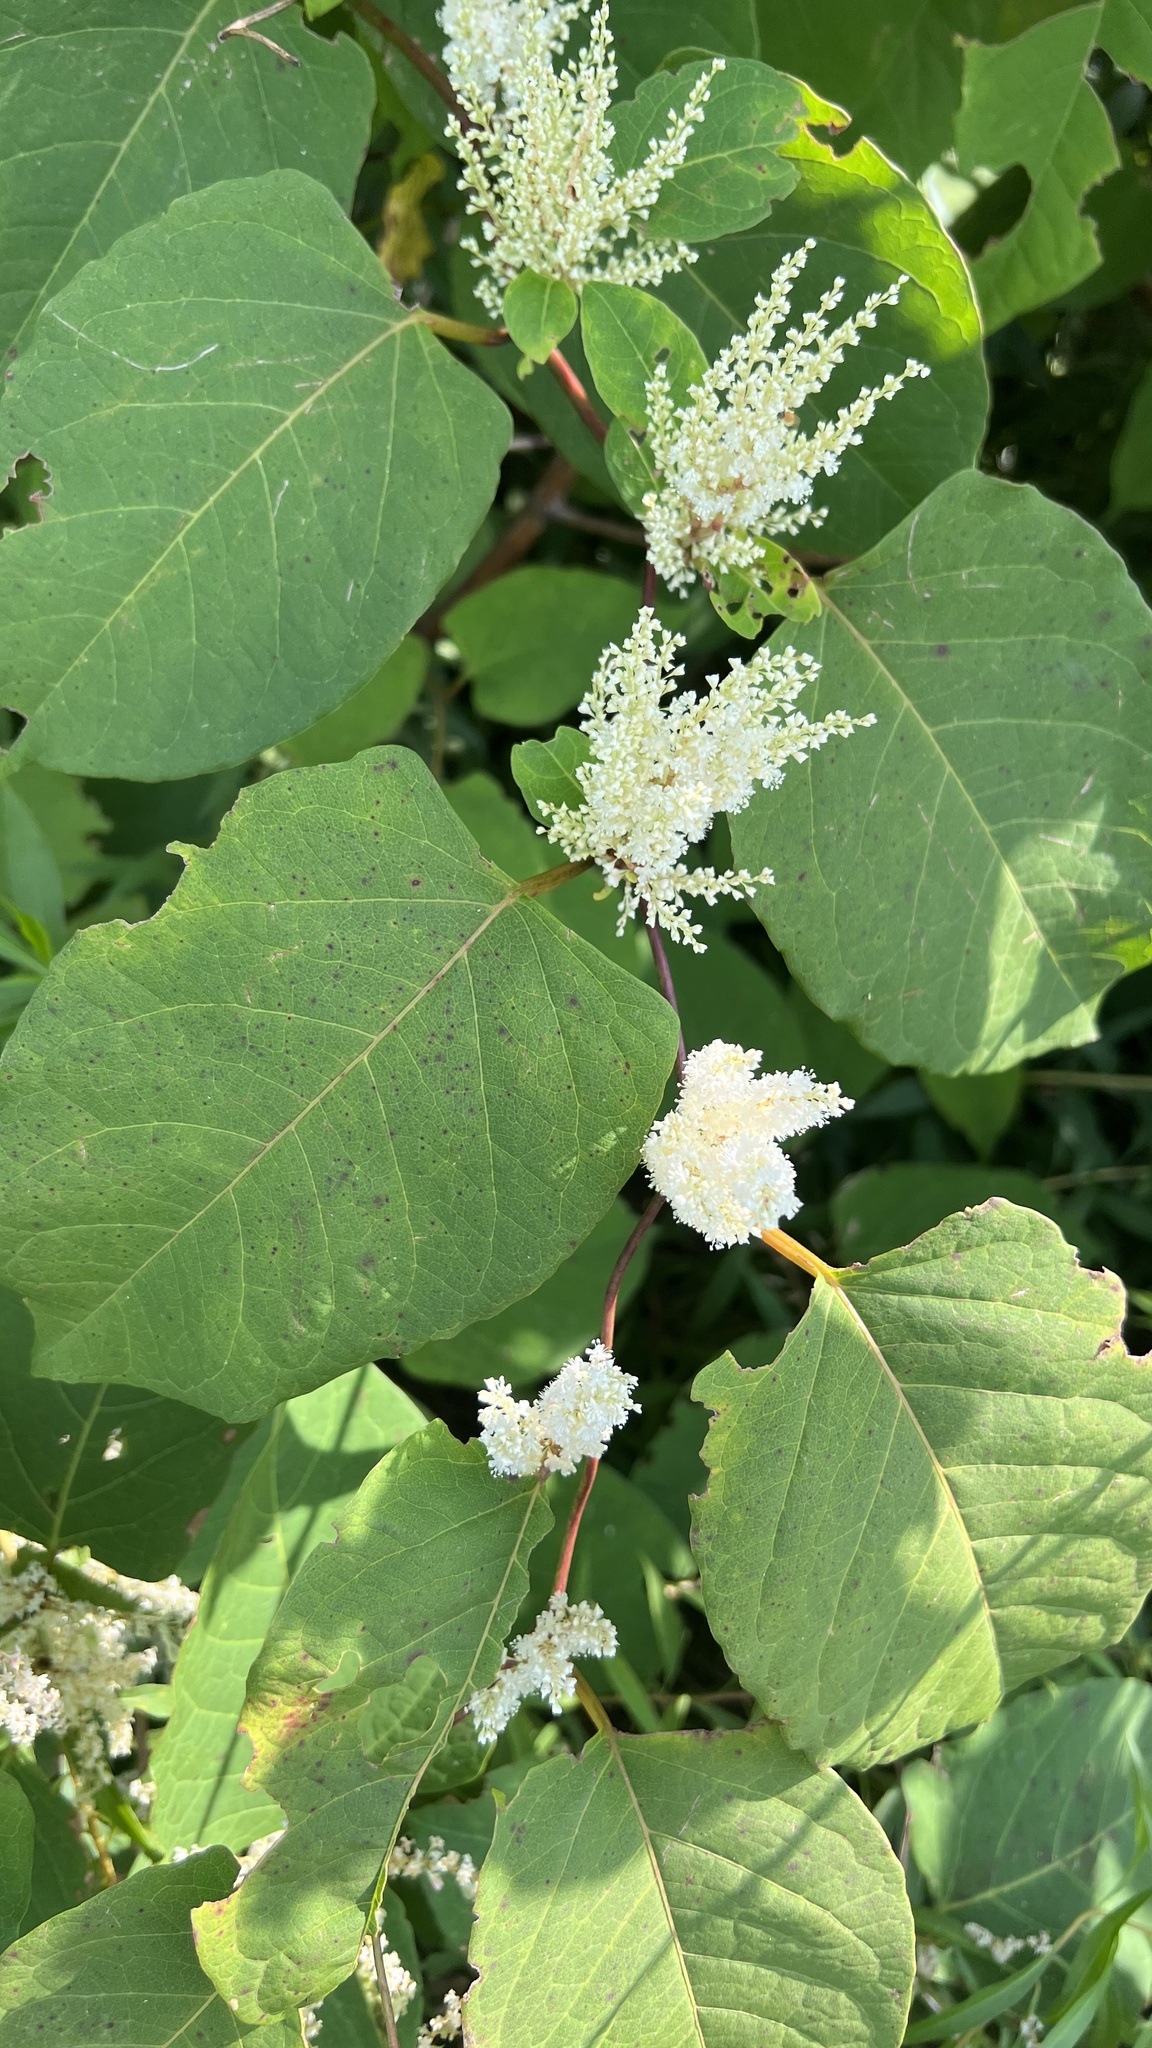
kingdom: Plantae
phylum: Tracheophyta
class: Magnoliopsida
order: Caryophyllales
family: Polygonaceae
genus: Reynoutria
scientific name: Reynoutria japonica
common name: Japanese knotweed
